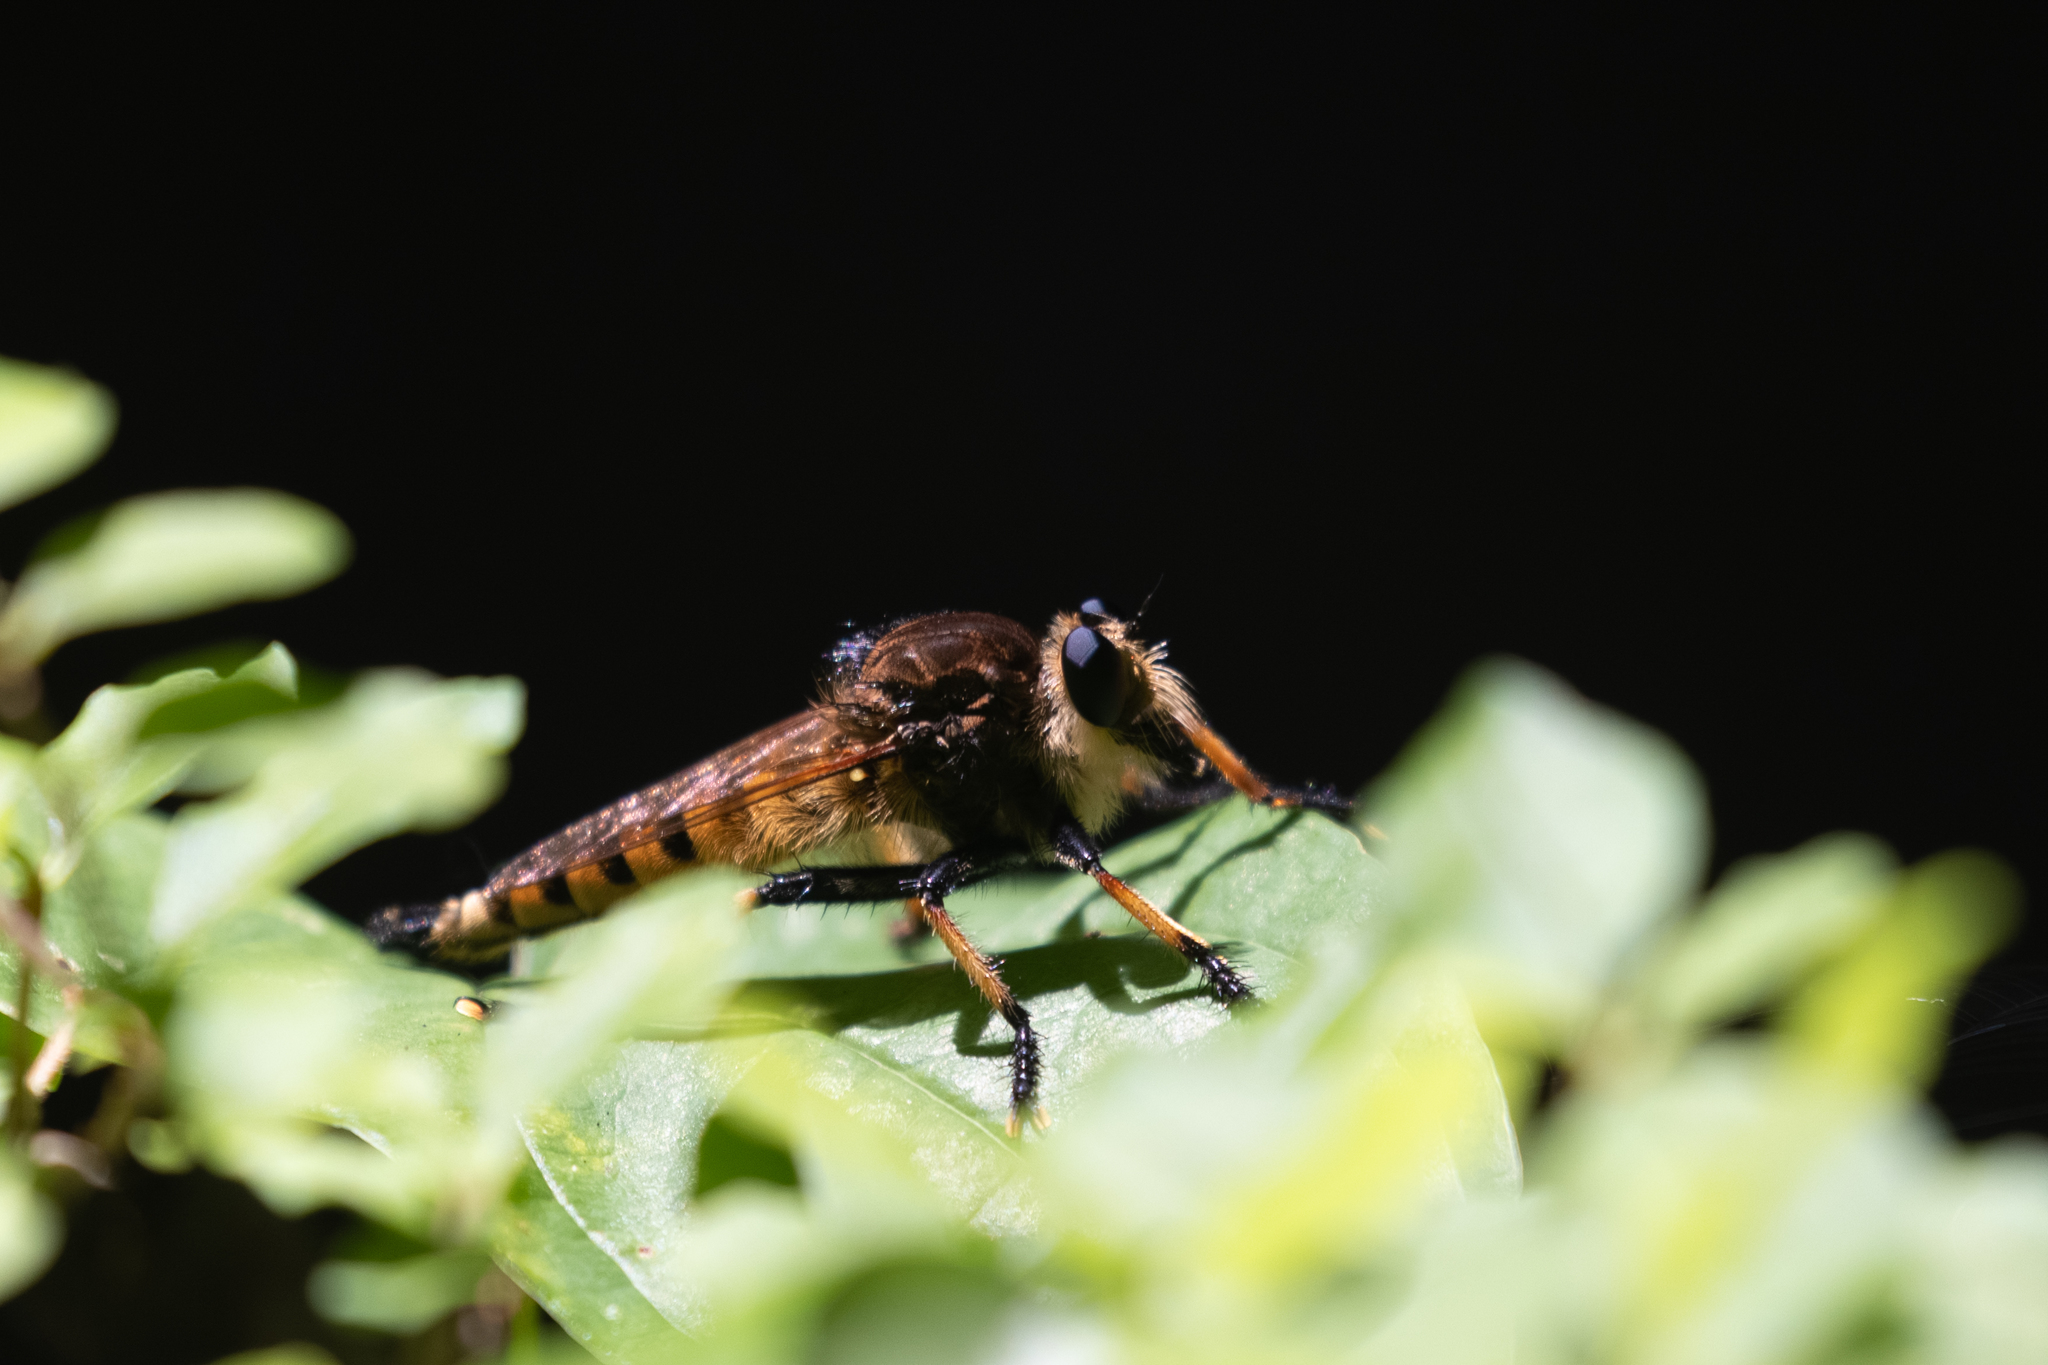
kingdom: Animalia
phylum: Arthropoda
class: Insecta
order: Diptera
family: Asilidae
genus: Promachus
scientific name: Promachus rufipes
